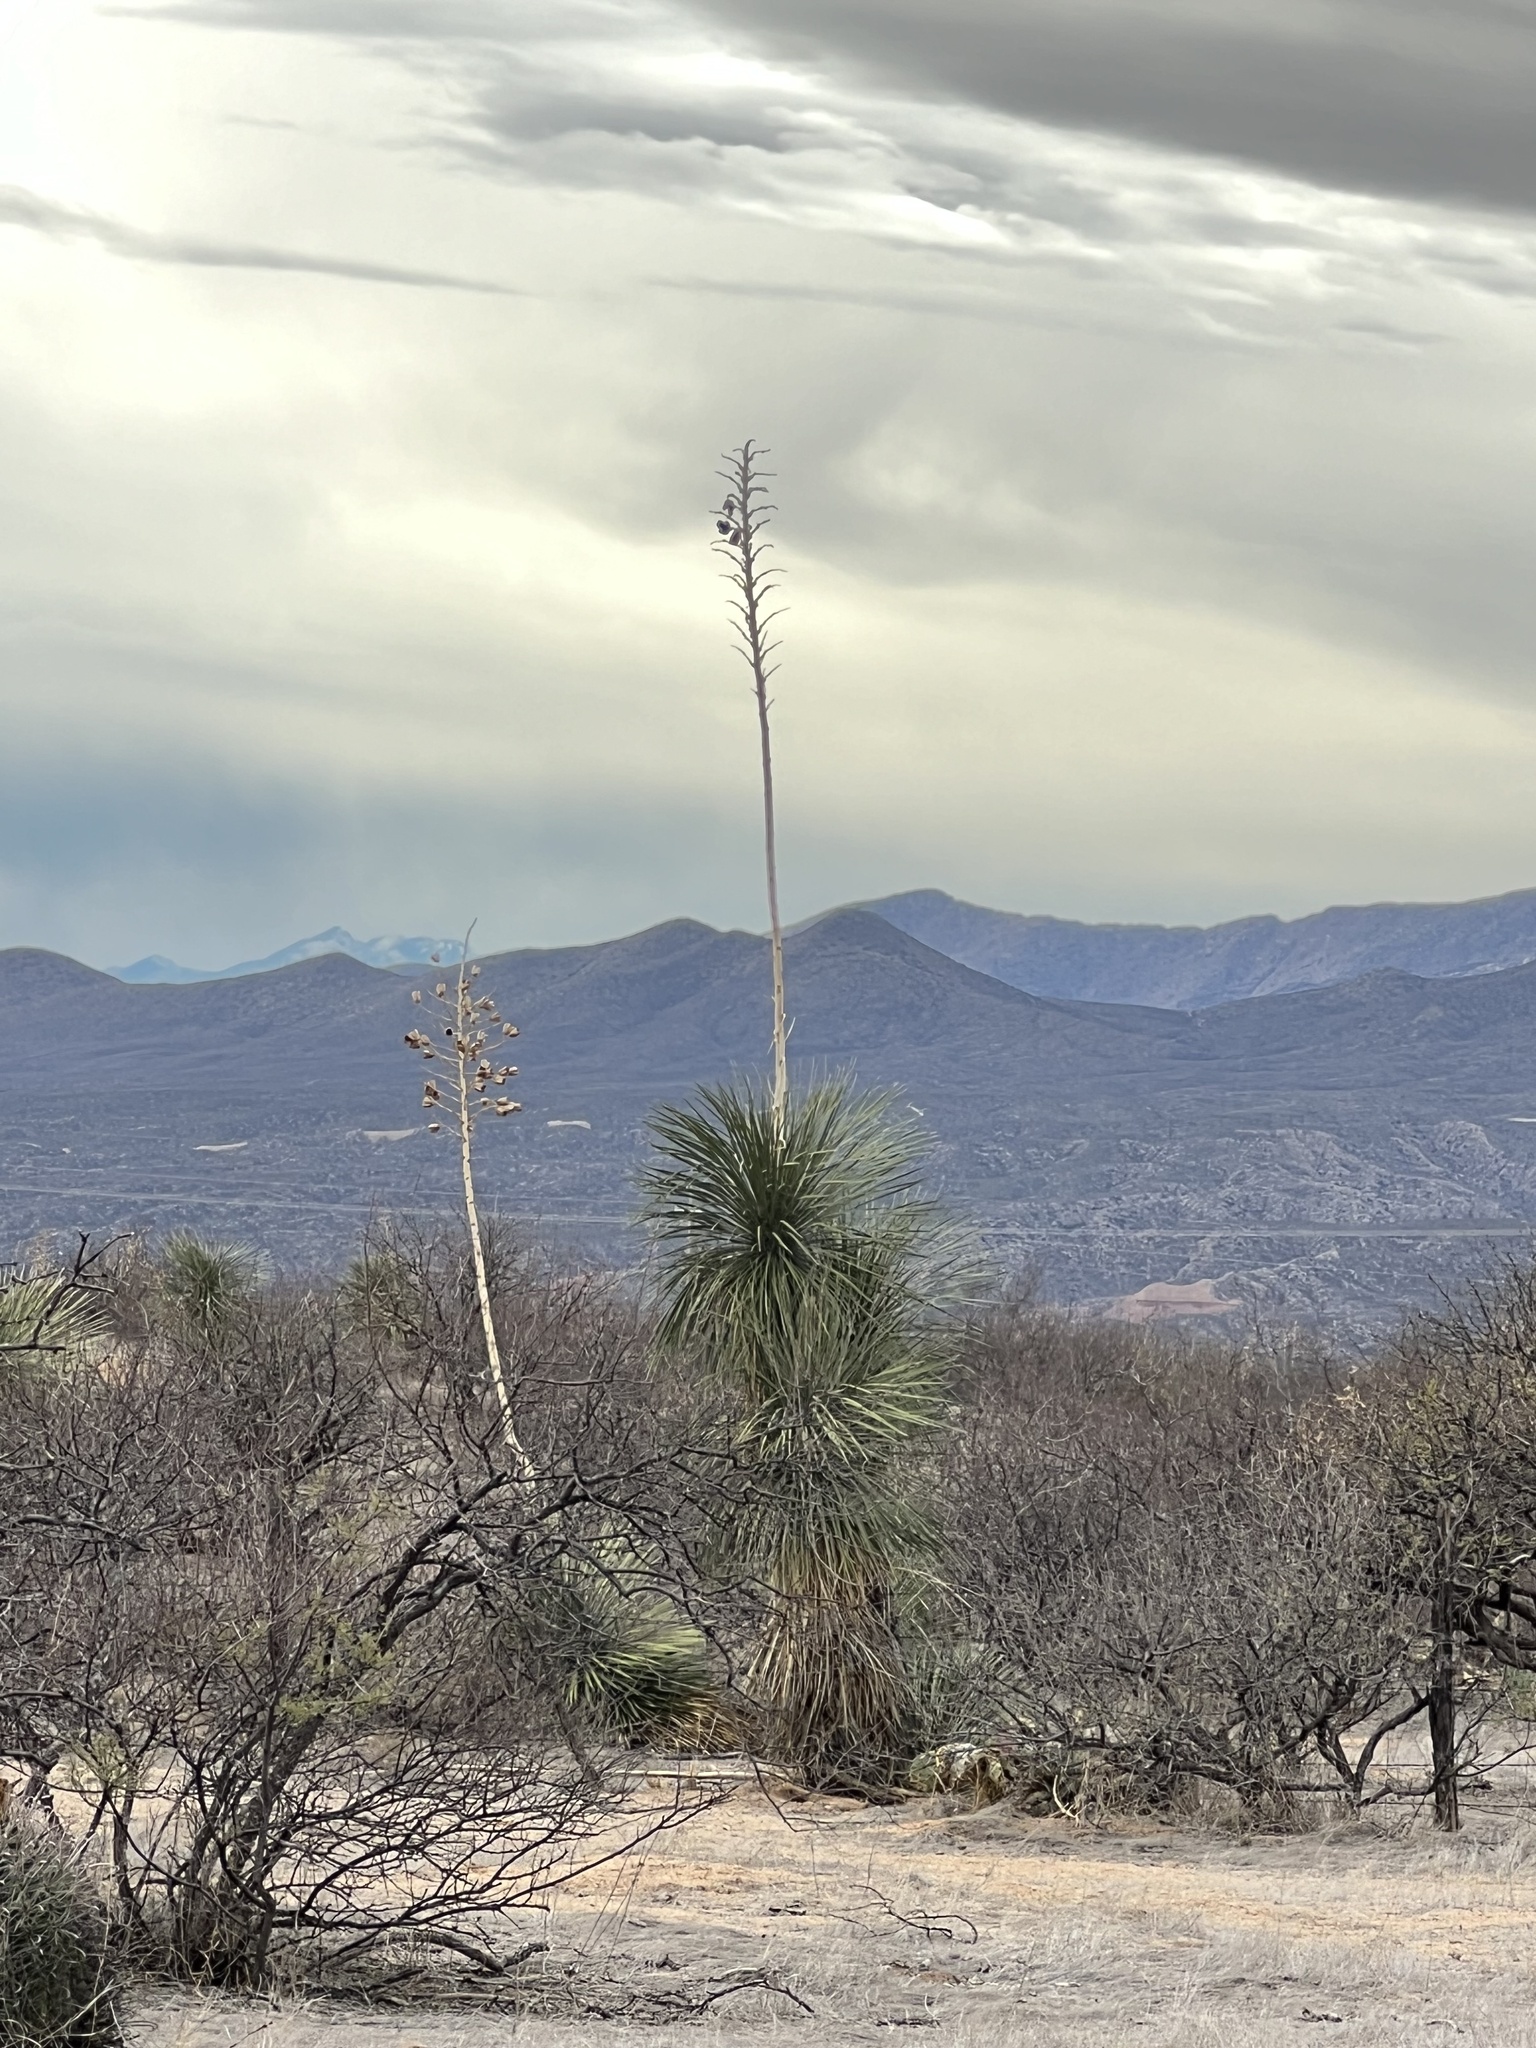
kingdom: Plantae
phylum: Tracheophyta
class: Liliopsida
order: Asparagales
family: Asparagaceae
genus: Yucca
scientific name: Yucca elata
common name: Palmella
